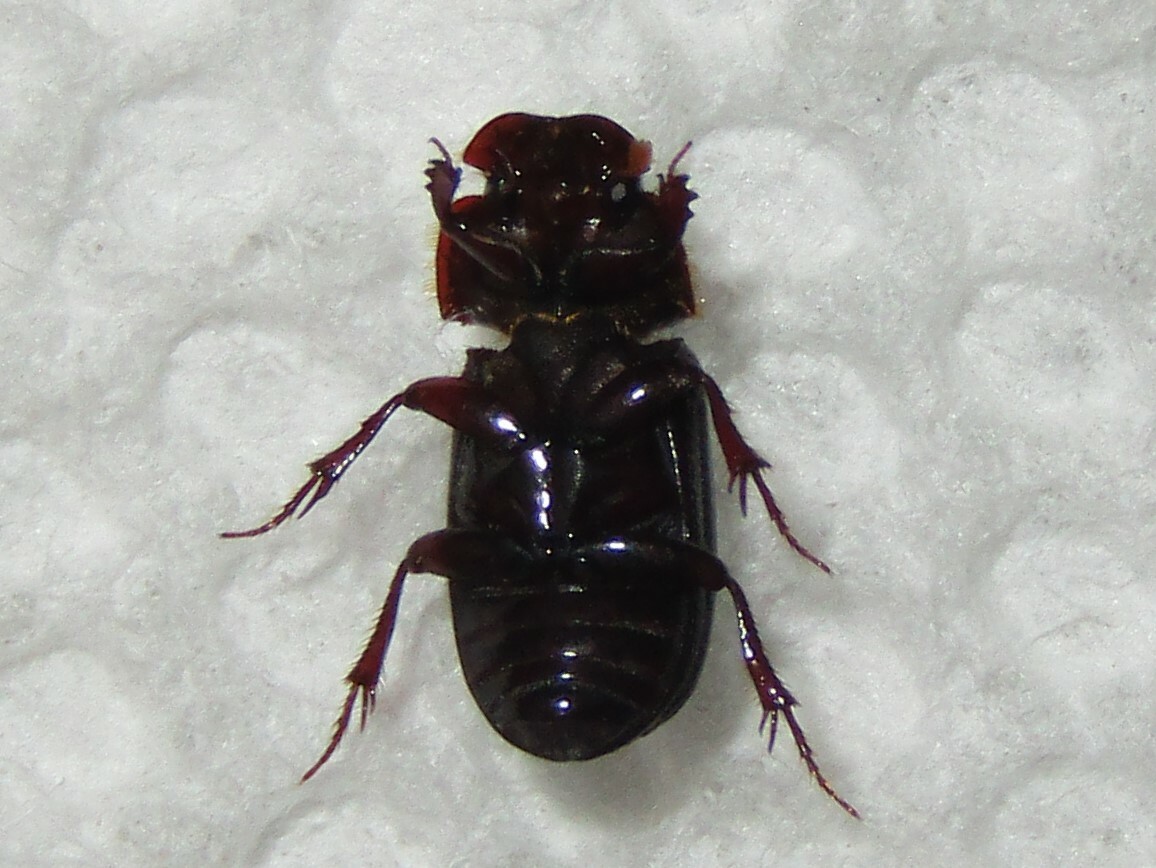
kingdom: Animalia
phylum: Arthropoda
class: Insecta
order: Coleoptera
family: Scarabaeidae
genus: Martineziana
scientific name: Martineziana dutertrei
